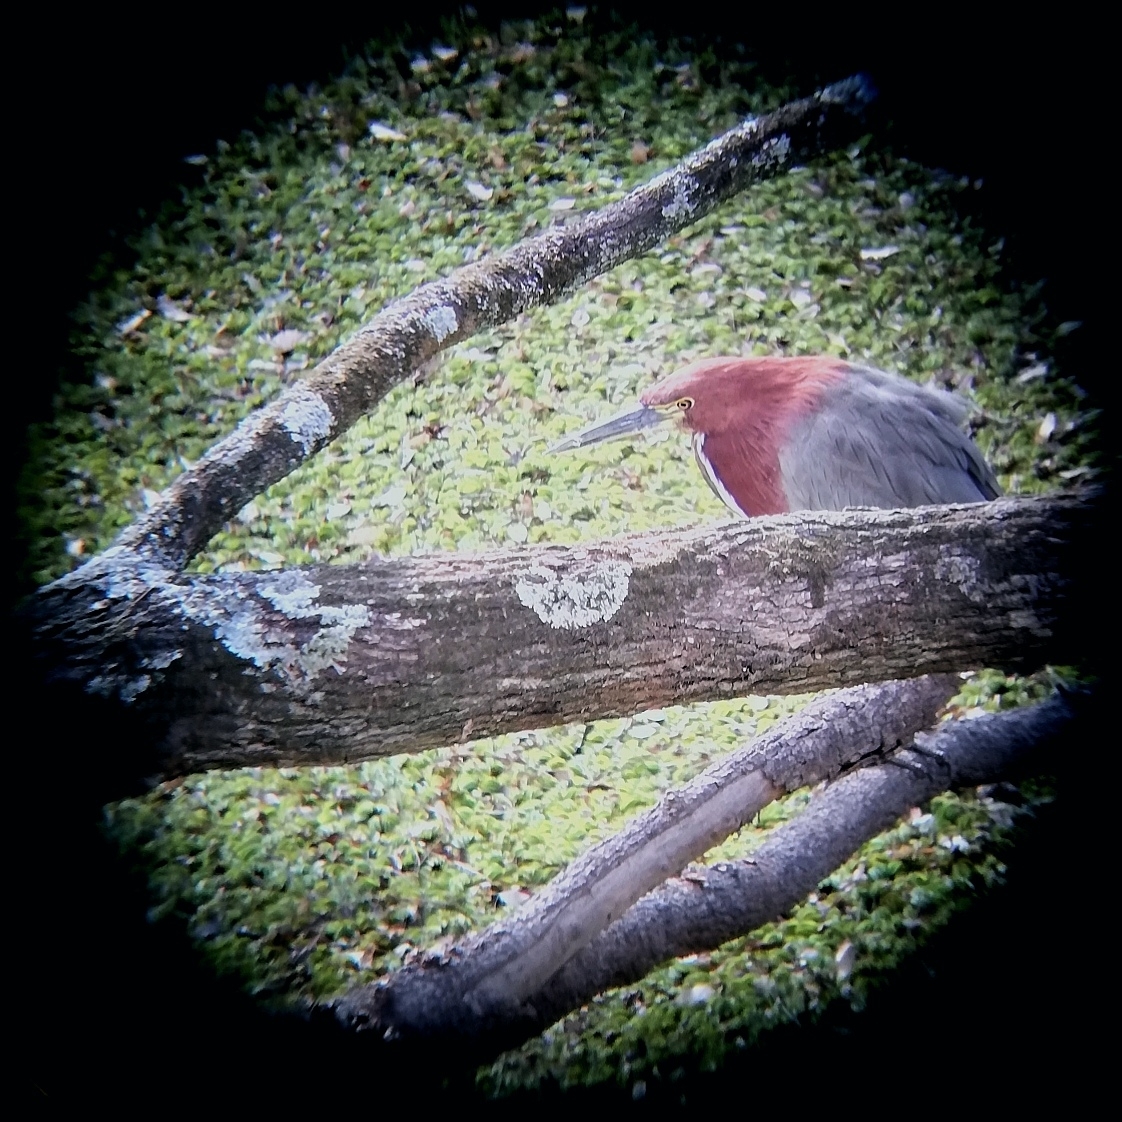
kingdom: Animalia
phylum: Chordata
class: Aves
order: Pelecaniformes
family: Ardeidae
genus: Tigrisoma
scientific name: Tigrisoma lineatum
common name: Rufescent tiger-heron
